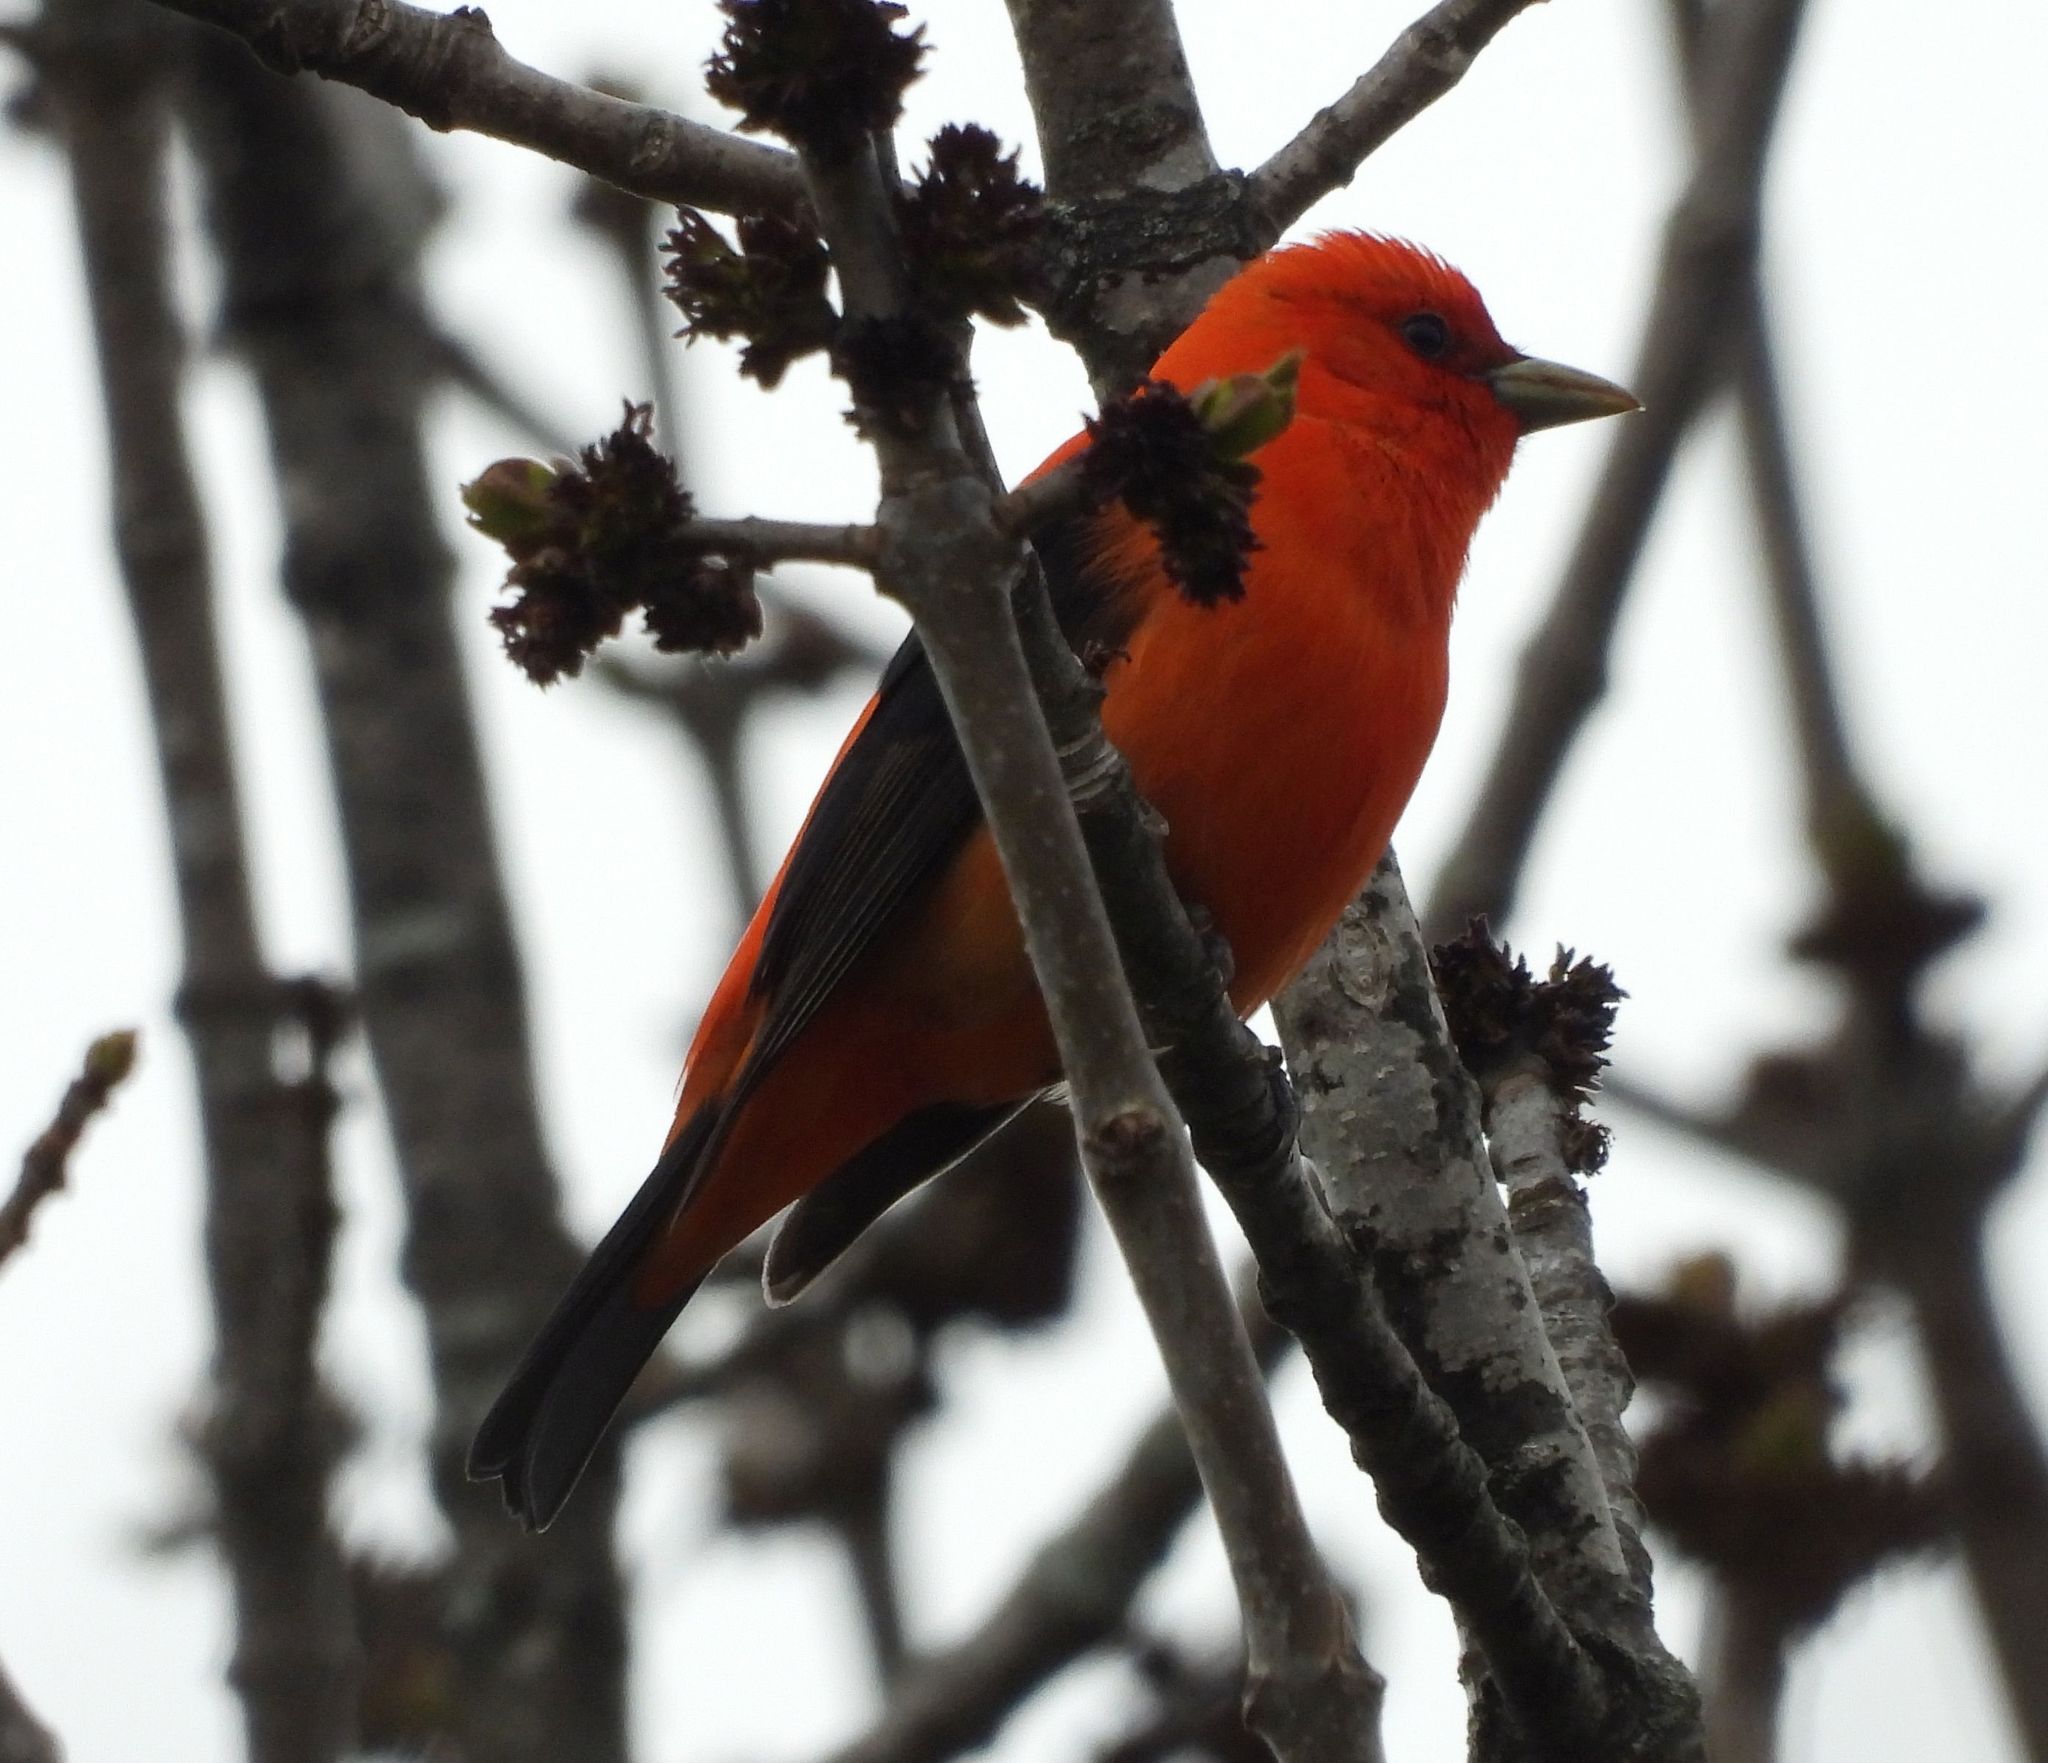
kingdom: Animalia
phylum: Chordata
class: Aves
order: Passeriformes
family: Cardinalidae
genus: Piranga
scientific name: Piranga olivacea
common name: Scarlet tanager
